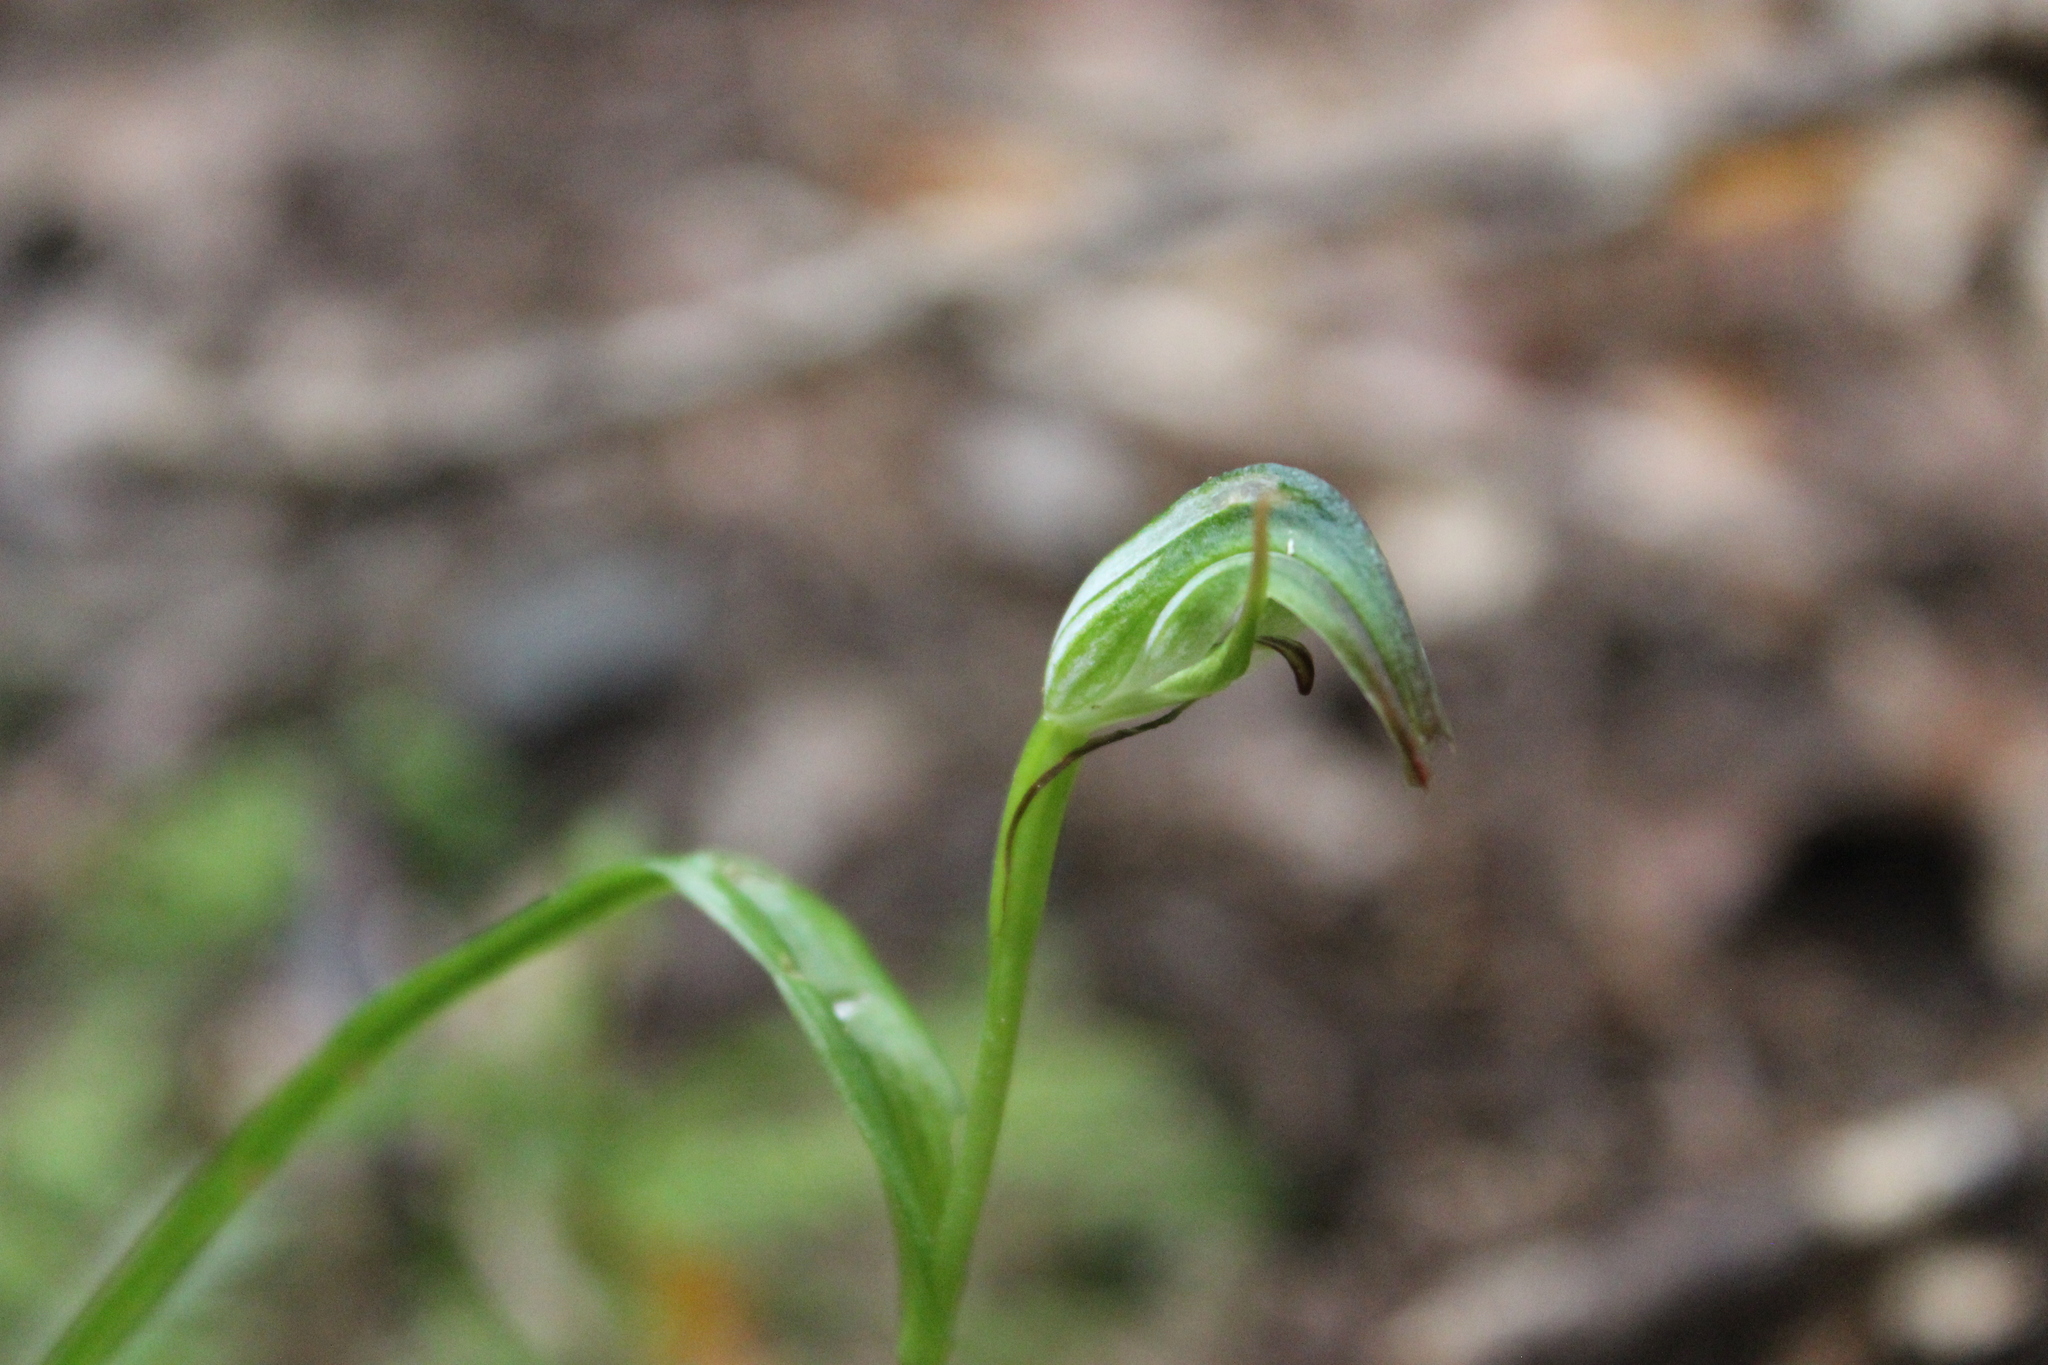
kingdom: Plantae
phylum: Tracheophyta
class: Liliopsida
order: Asparagales
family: Orchidaceae
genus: Pterostylis
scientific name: Pterostylis graminea
